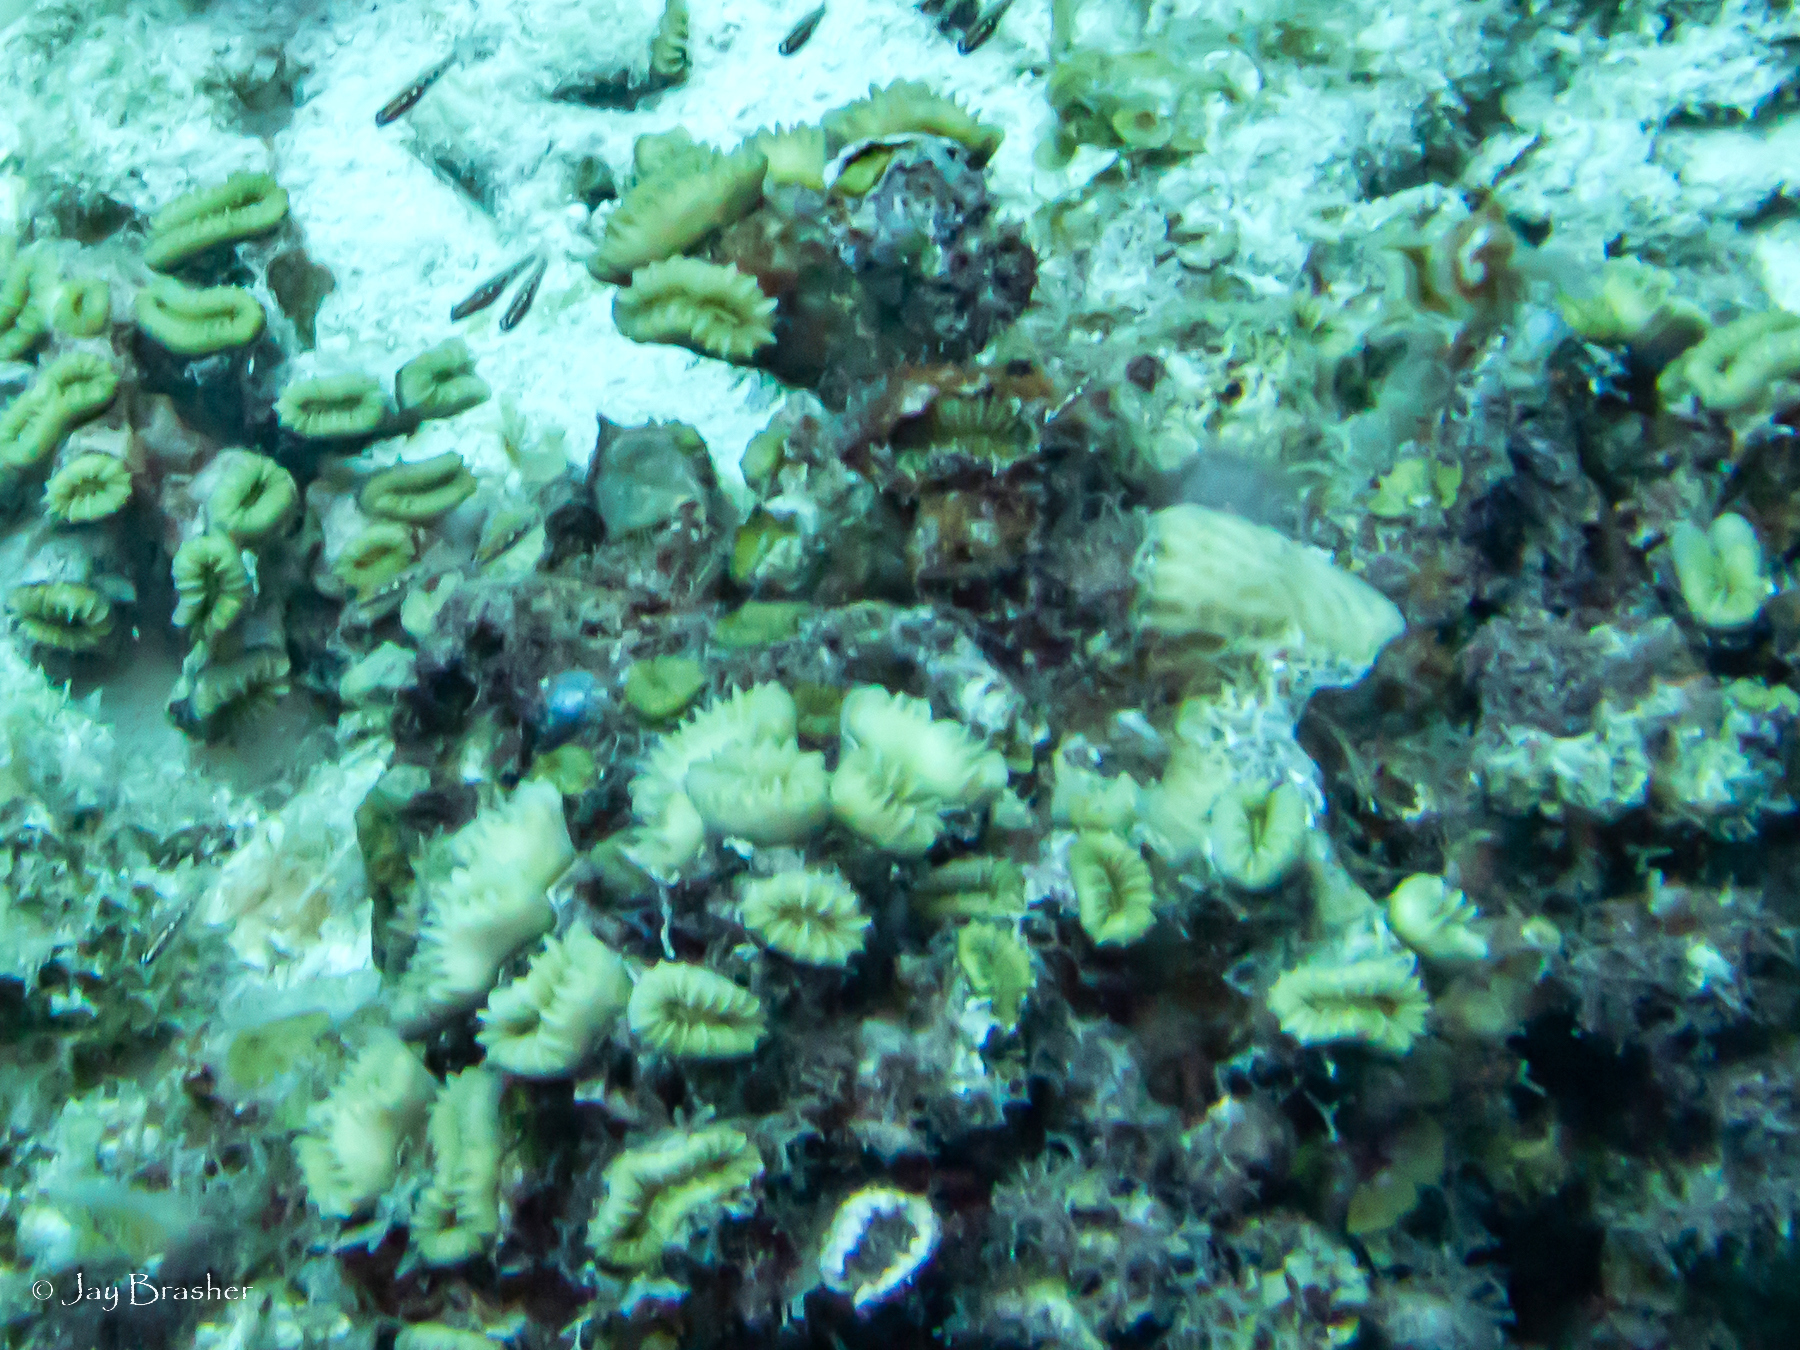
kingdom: Animalia
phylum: Cnidaria
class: Anthozoa
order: Scleractinia
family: Meandrinidae
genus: Eusmilia
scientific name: Eusmilia fastigiata
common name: Smooth flower coral
